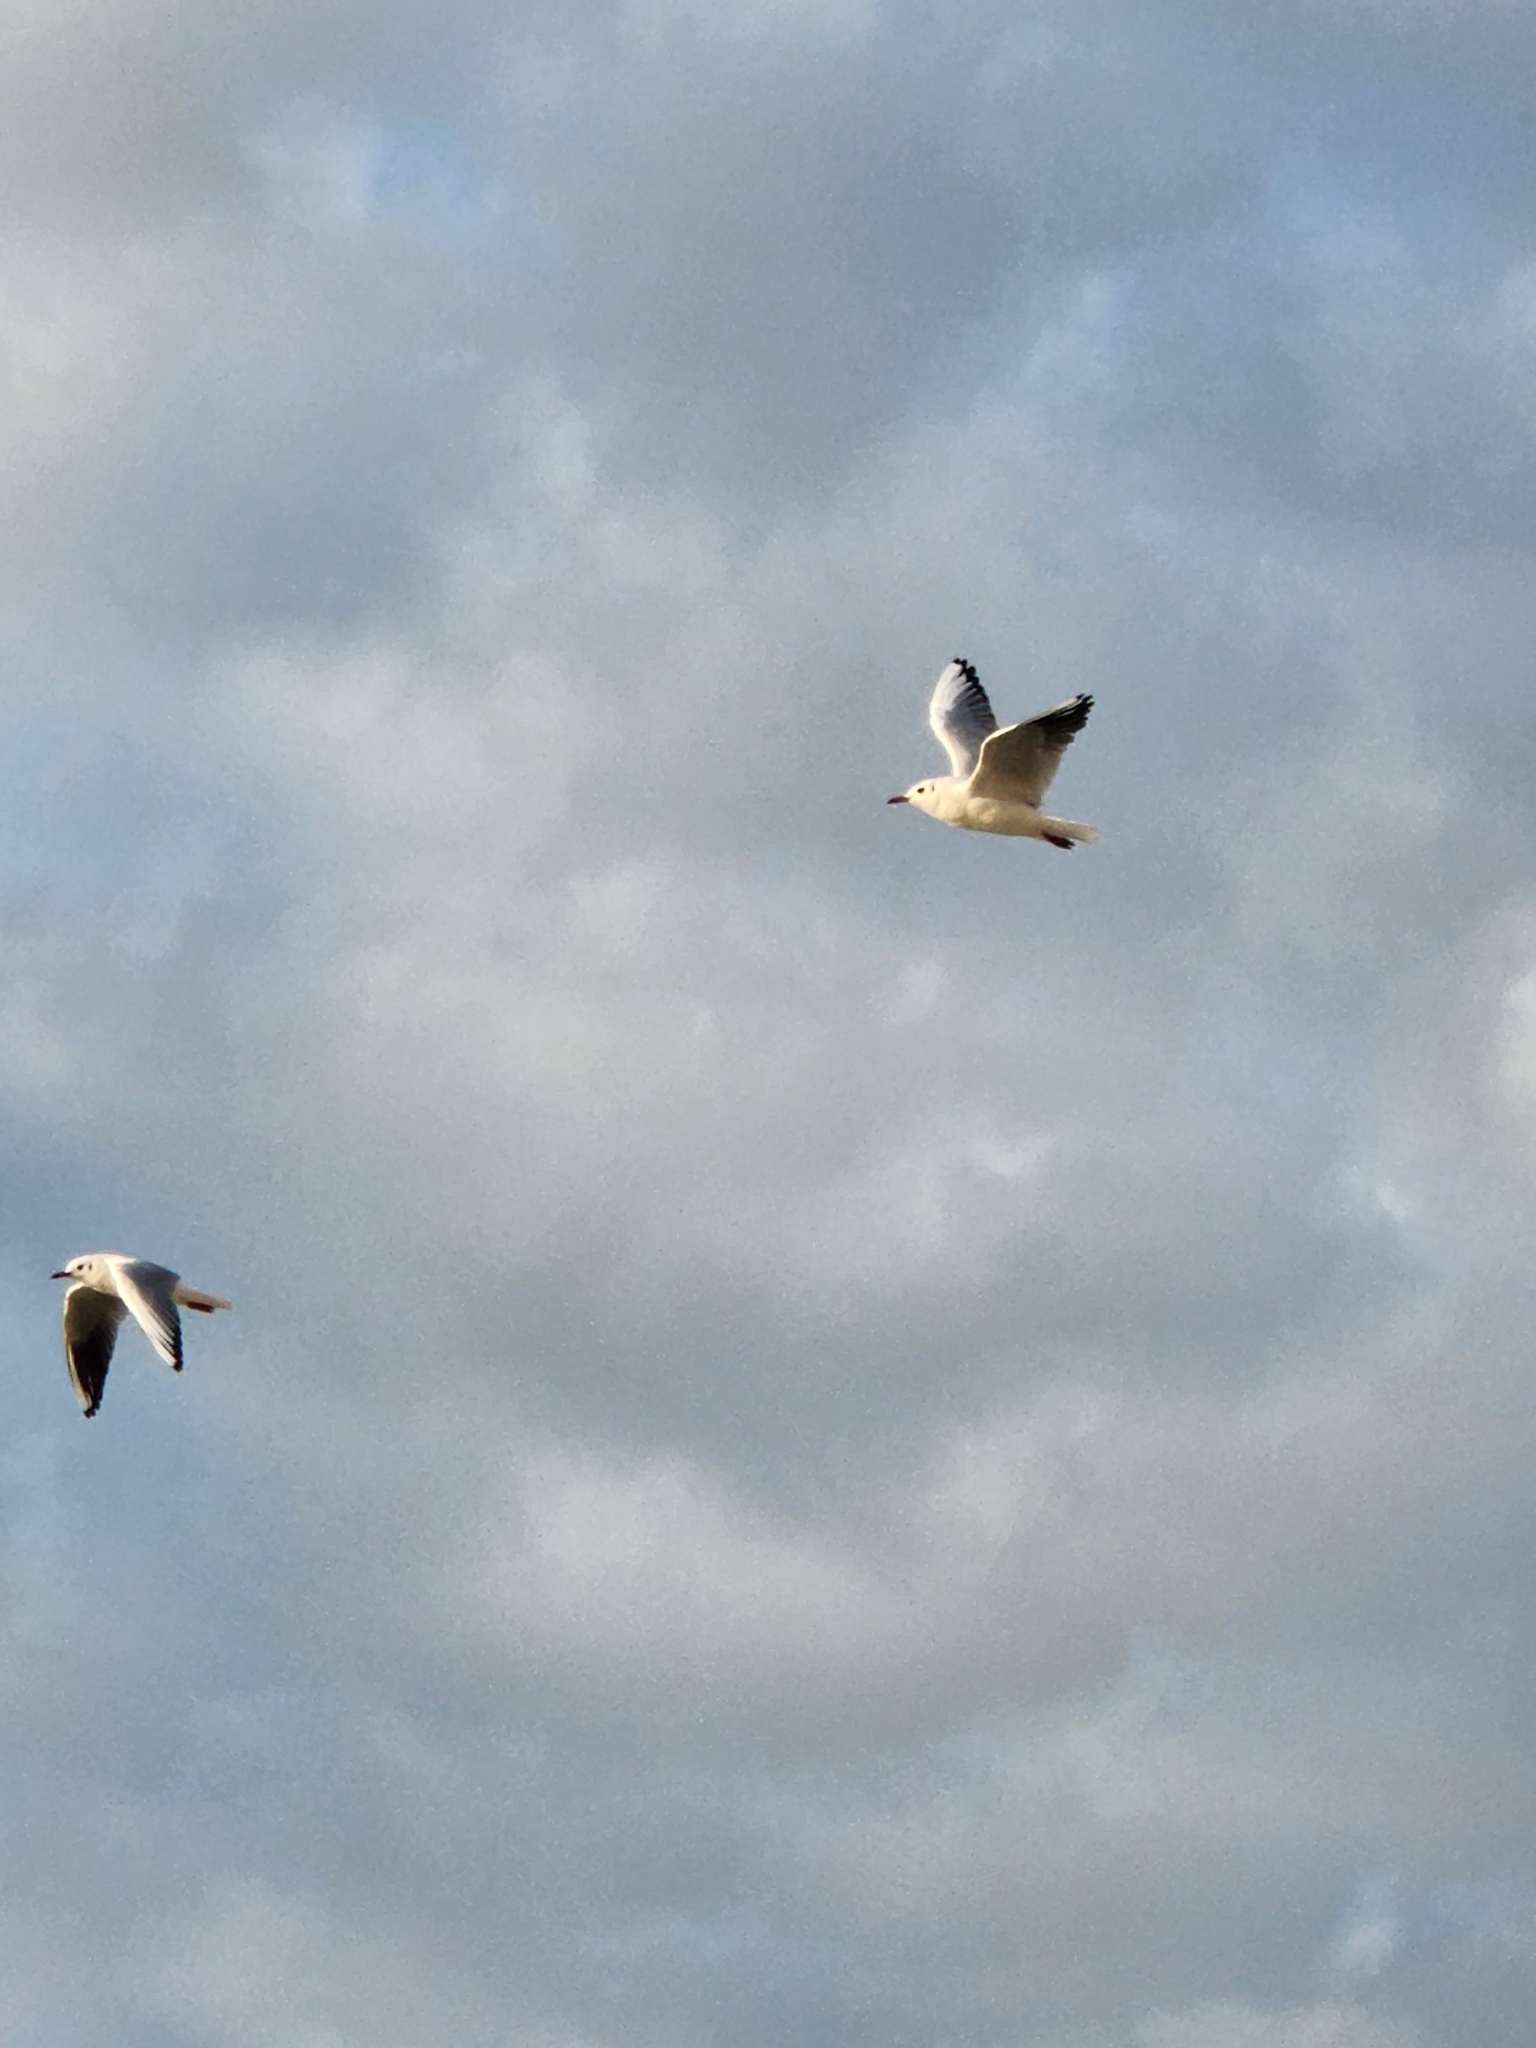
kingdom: Animalia
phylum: Chordata
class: Aves
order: Charadriiformes
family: Laridae
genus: Chroicocephalus
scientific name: Chroicocephalus genei
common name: Slender-billed gull
